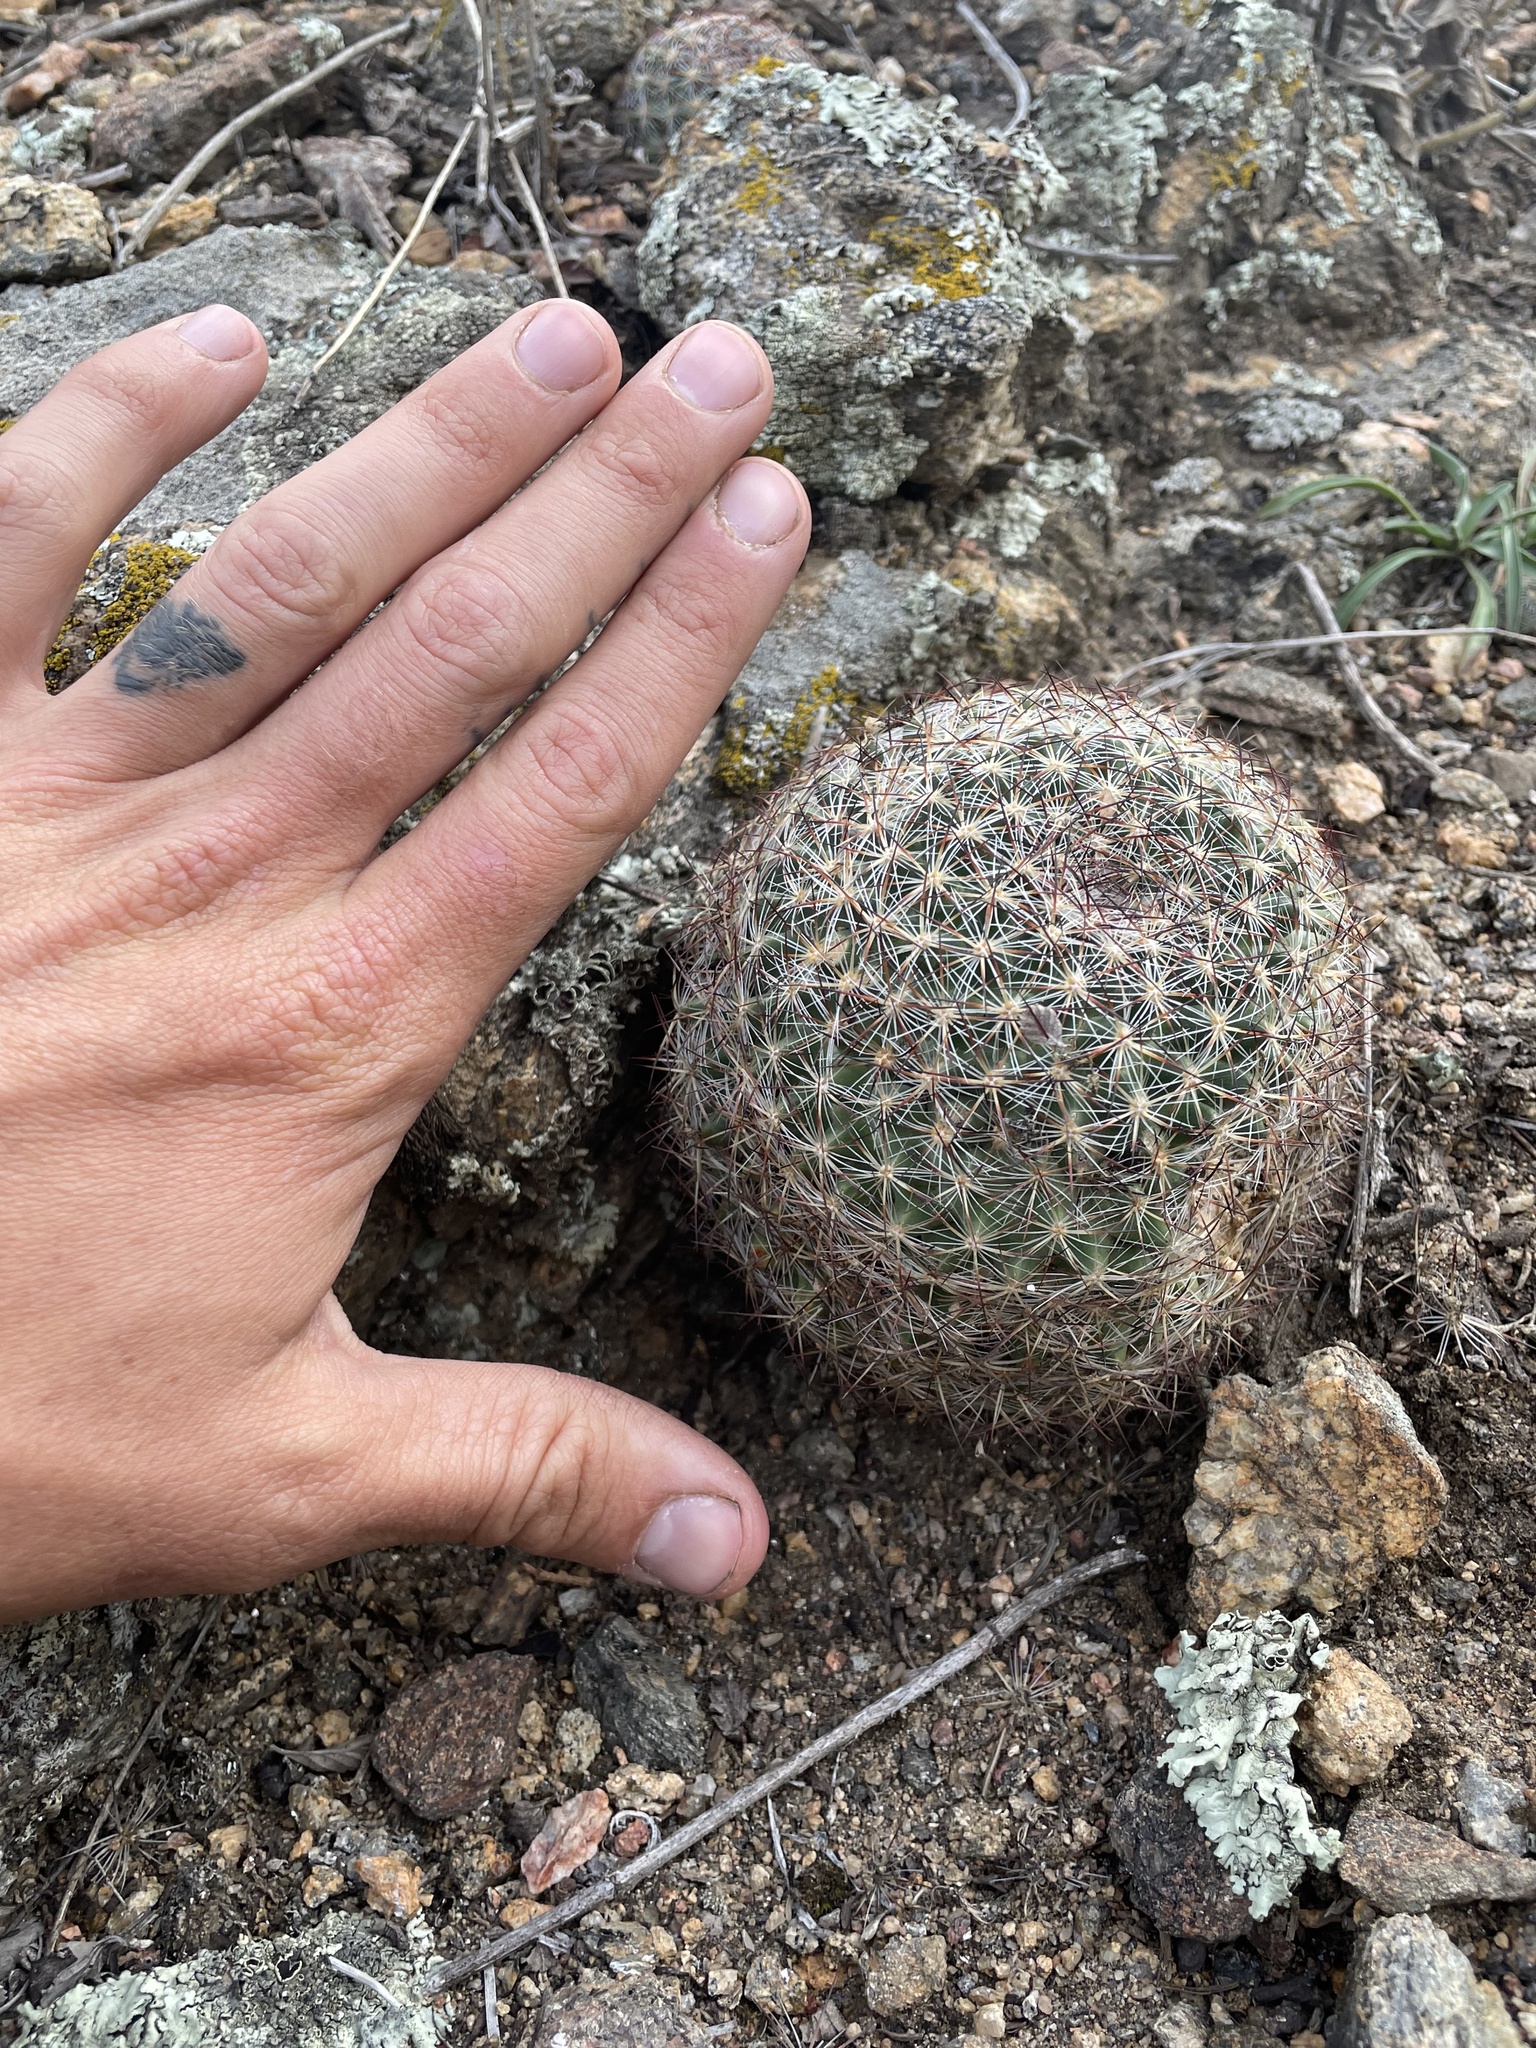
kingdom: Plantae
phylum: Tracheophyta
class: Magnoliopsida
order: Caryophyllales
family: Cactaceae
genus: Pediocactus
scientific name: Pediocactus simpsonii
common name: Simpson's hedgehog cactus
